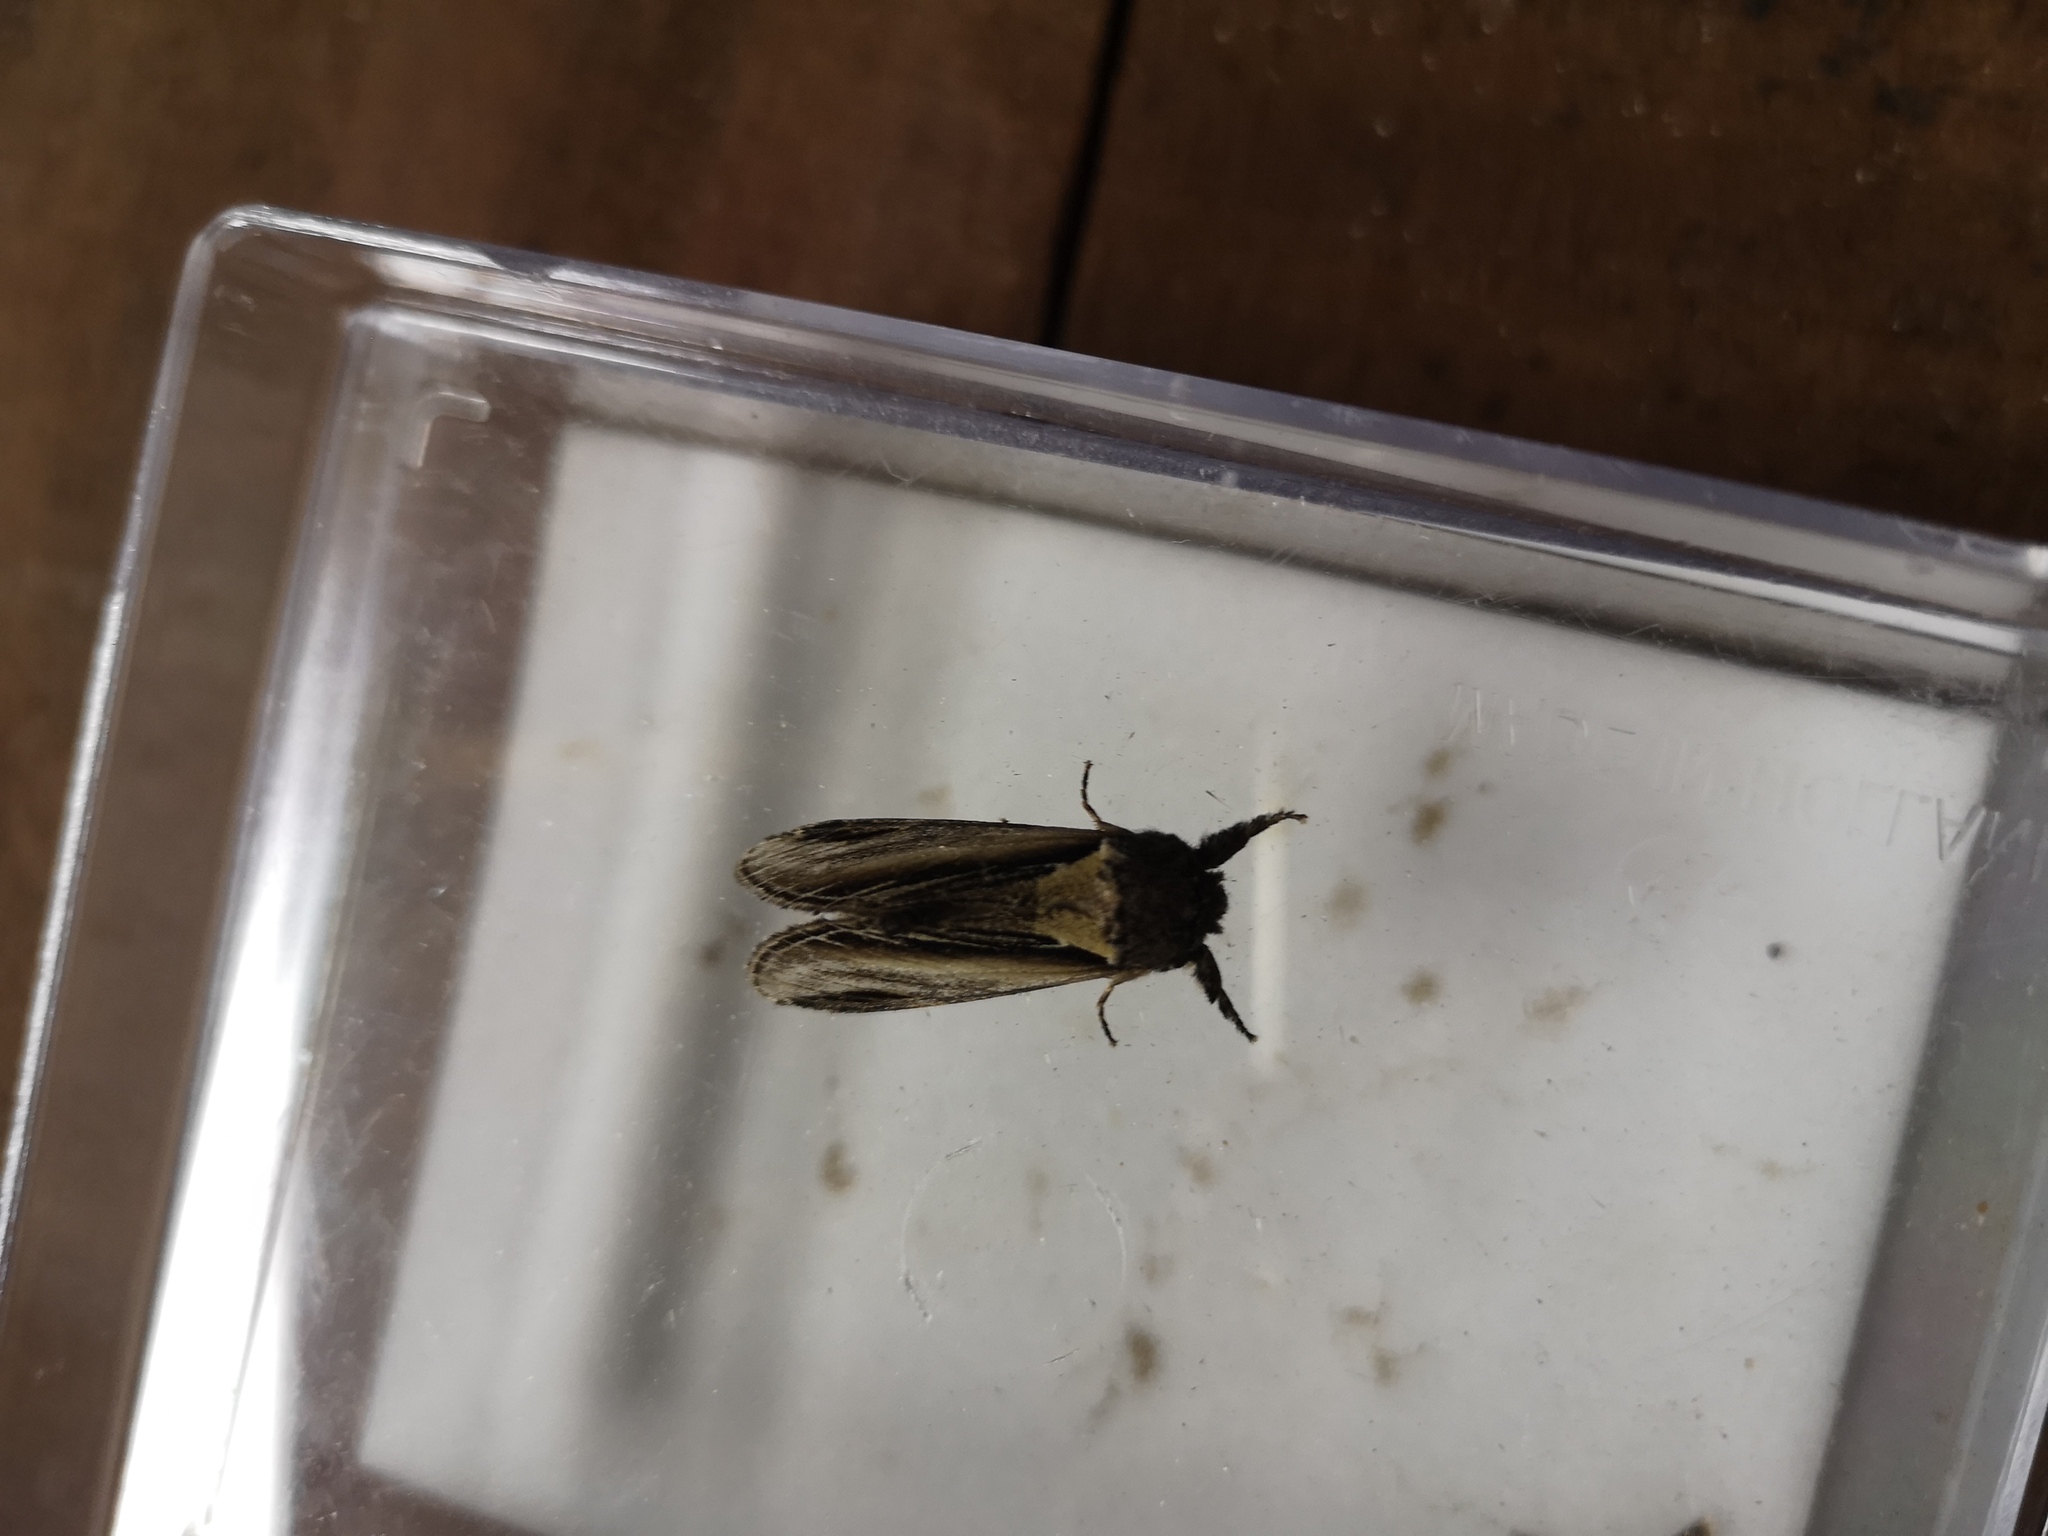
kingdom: Animalia
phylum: Arthropoda
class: Insecta
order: Lepidoptera
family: Notodontidae
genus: Pheosia
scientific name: Pheosia tremula
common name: Swallow prominent
